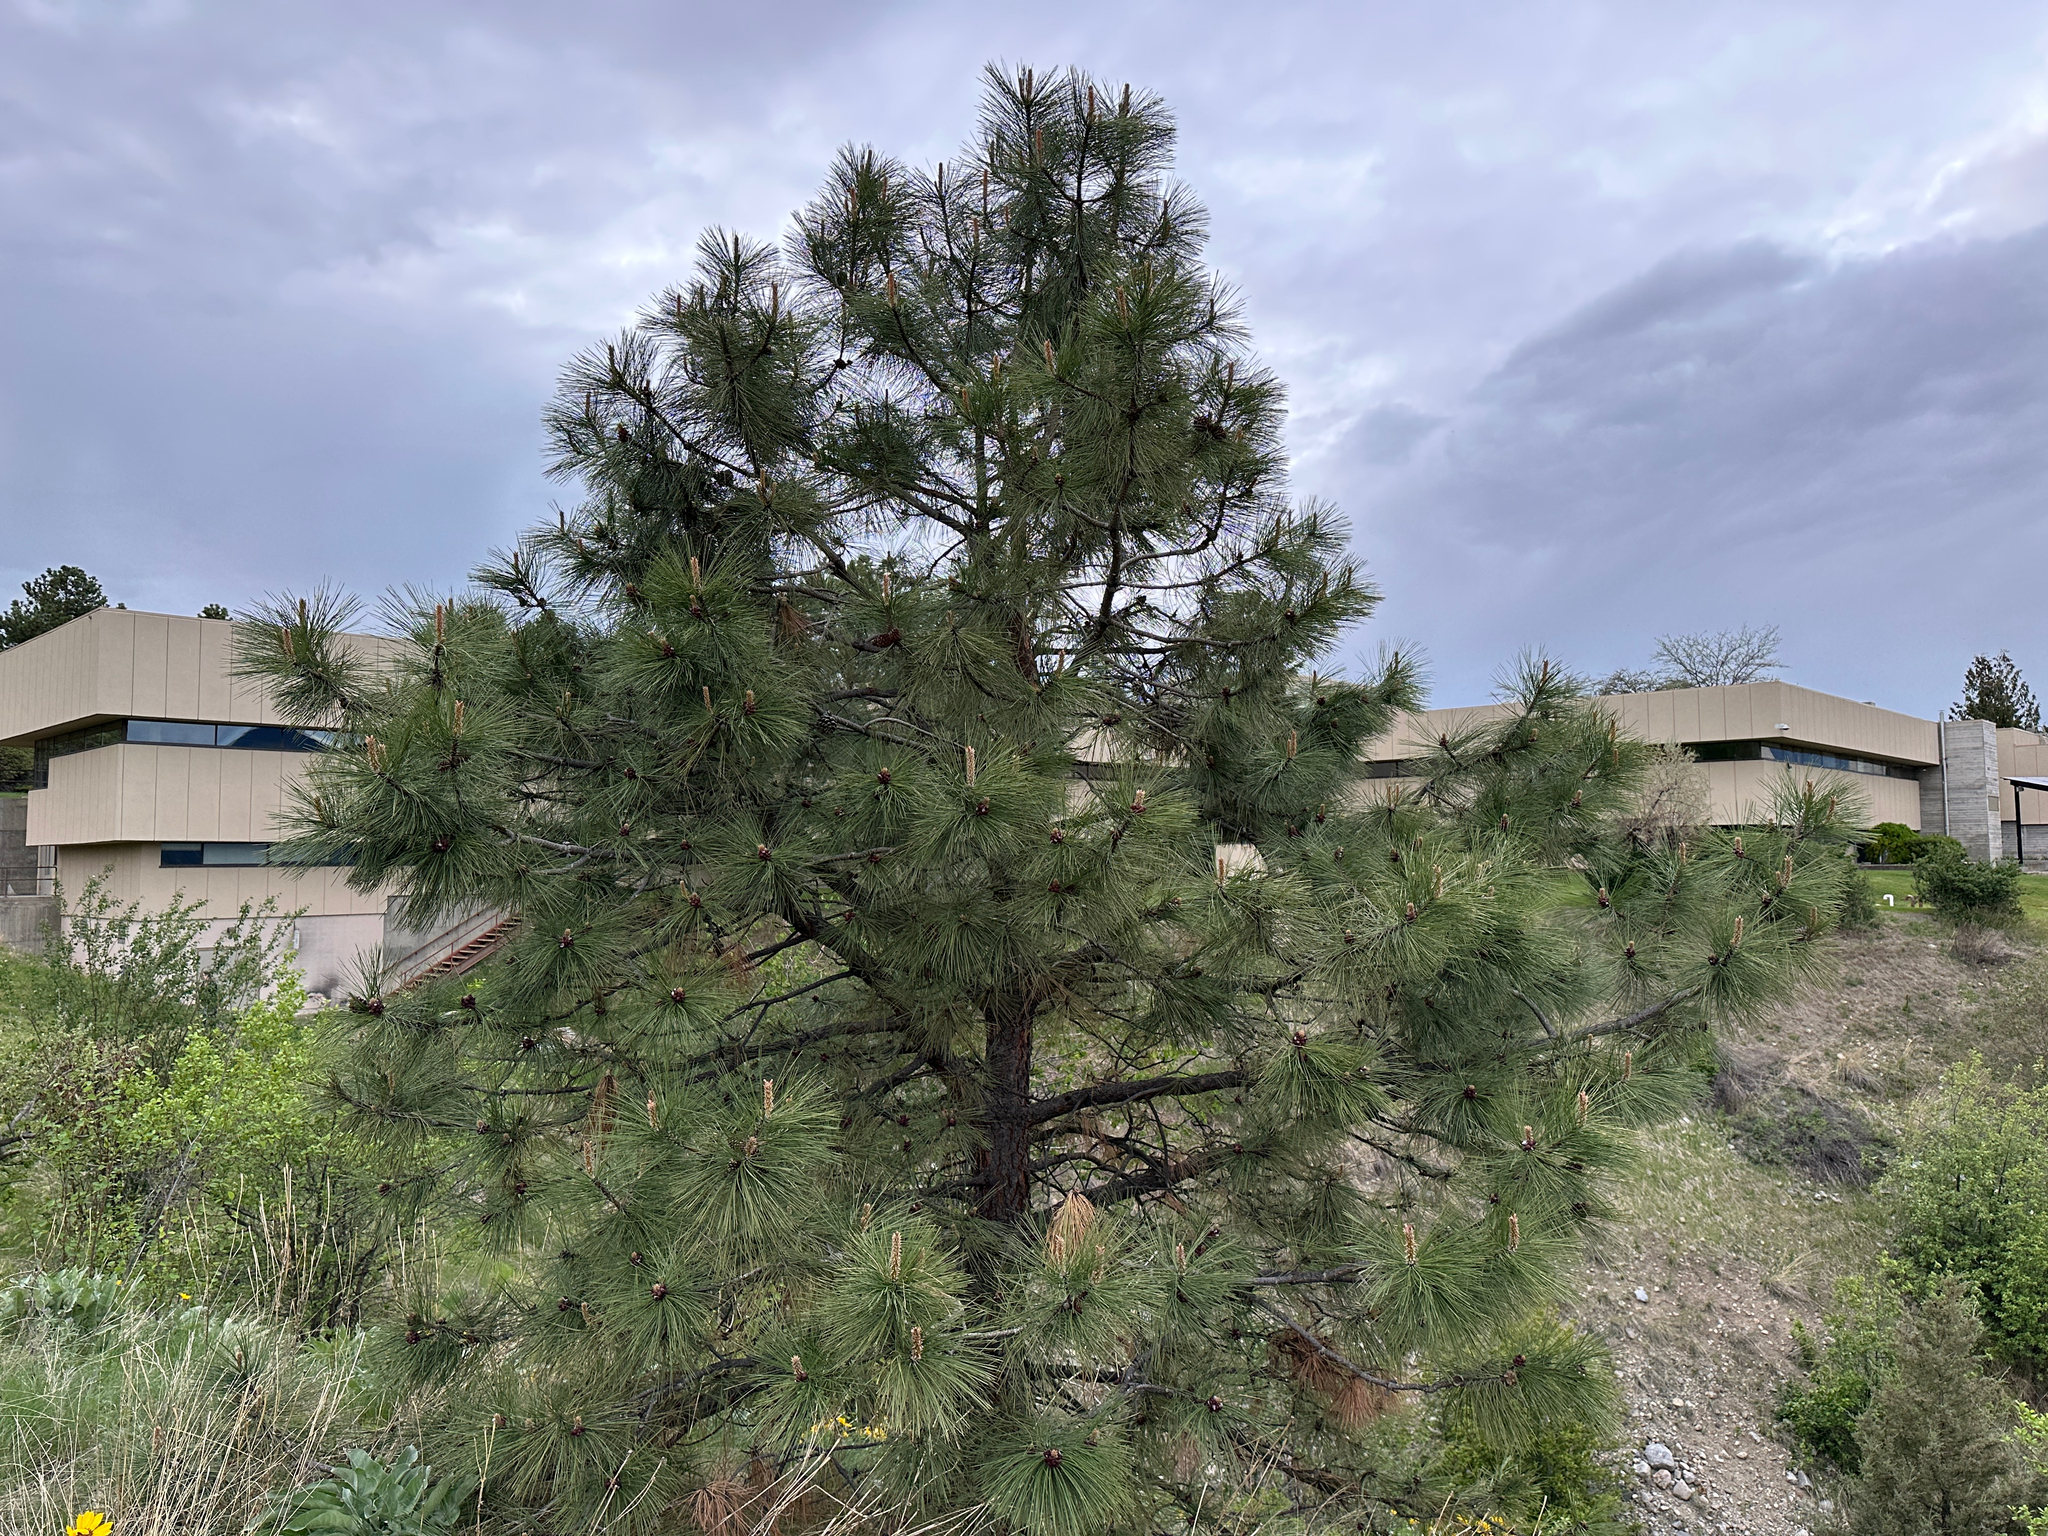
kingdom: Plantae
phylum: Tracheophyta
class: Pinopsida
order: Pinales
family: Pinaceae
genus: Pinus
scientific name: Pinus ponderosa
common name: Western yellow-pine
